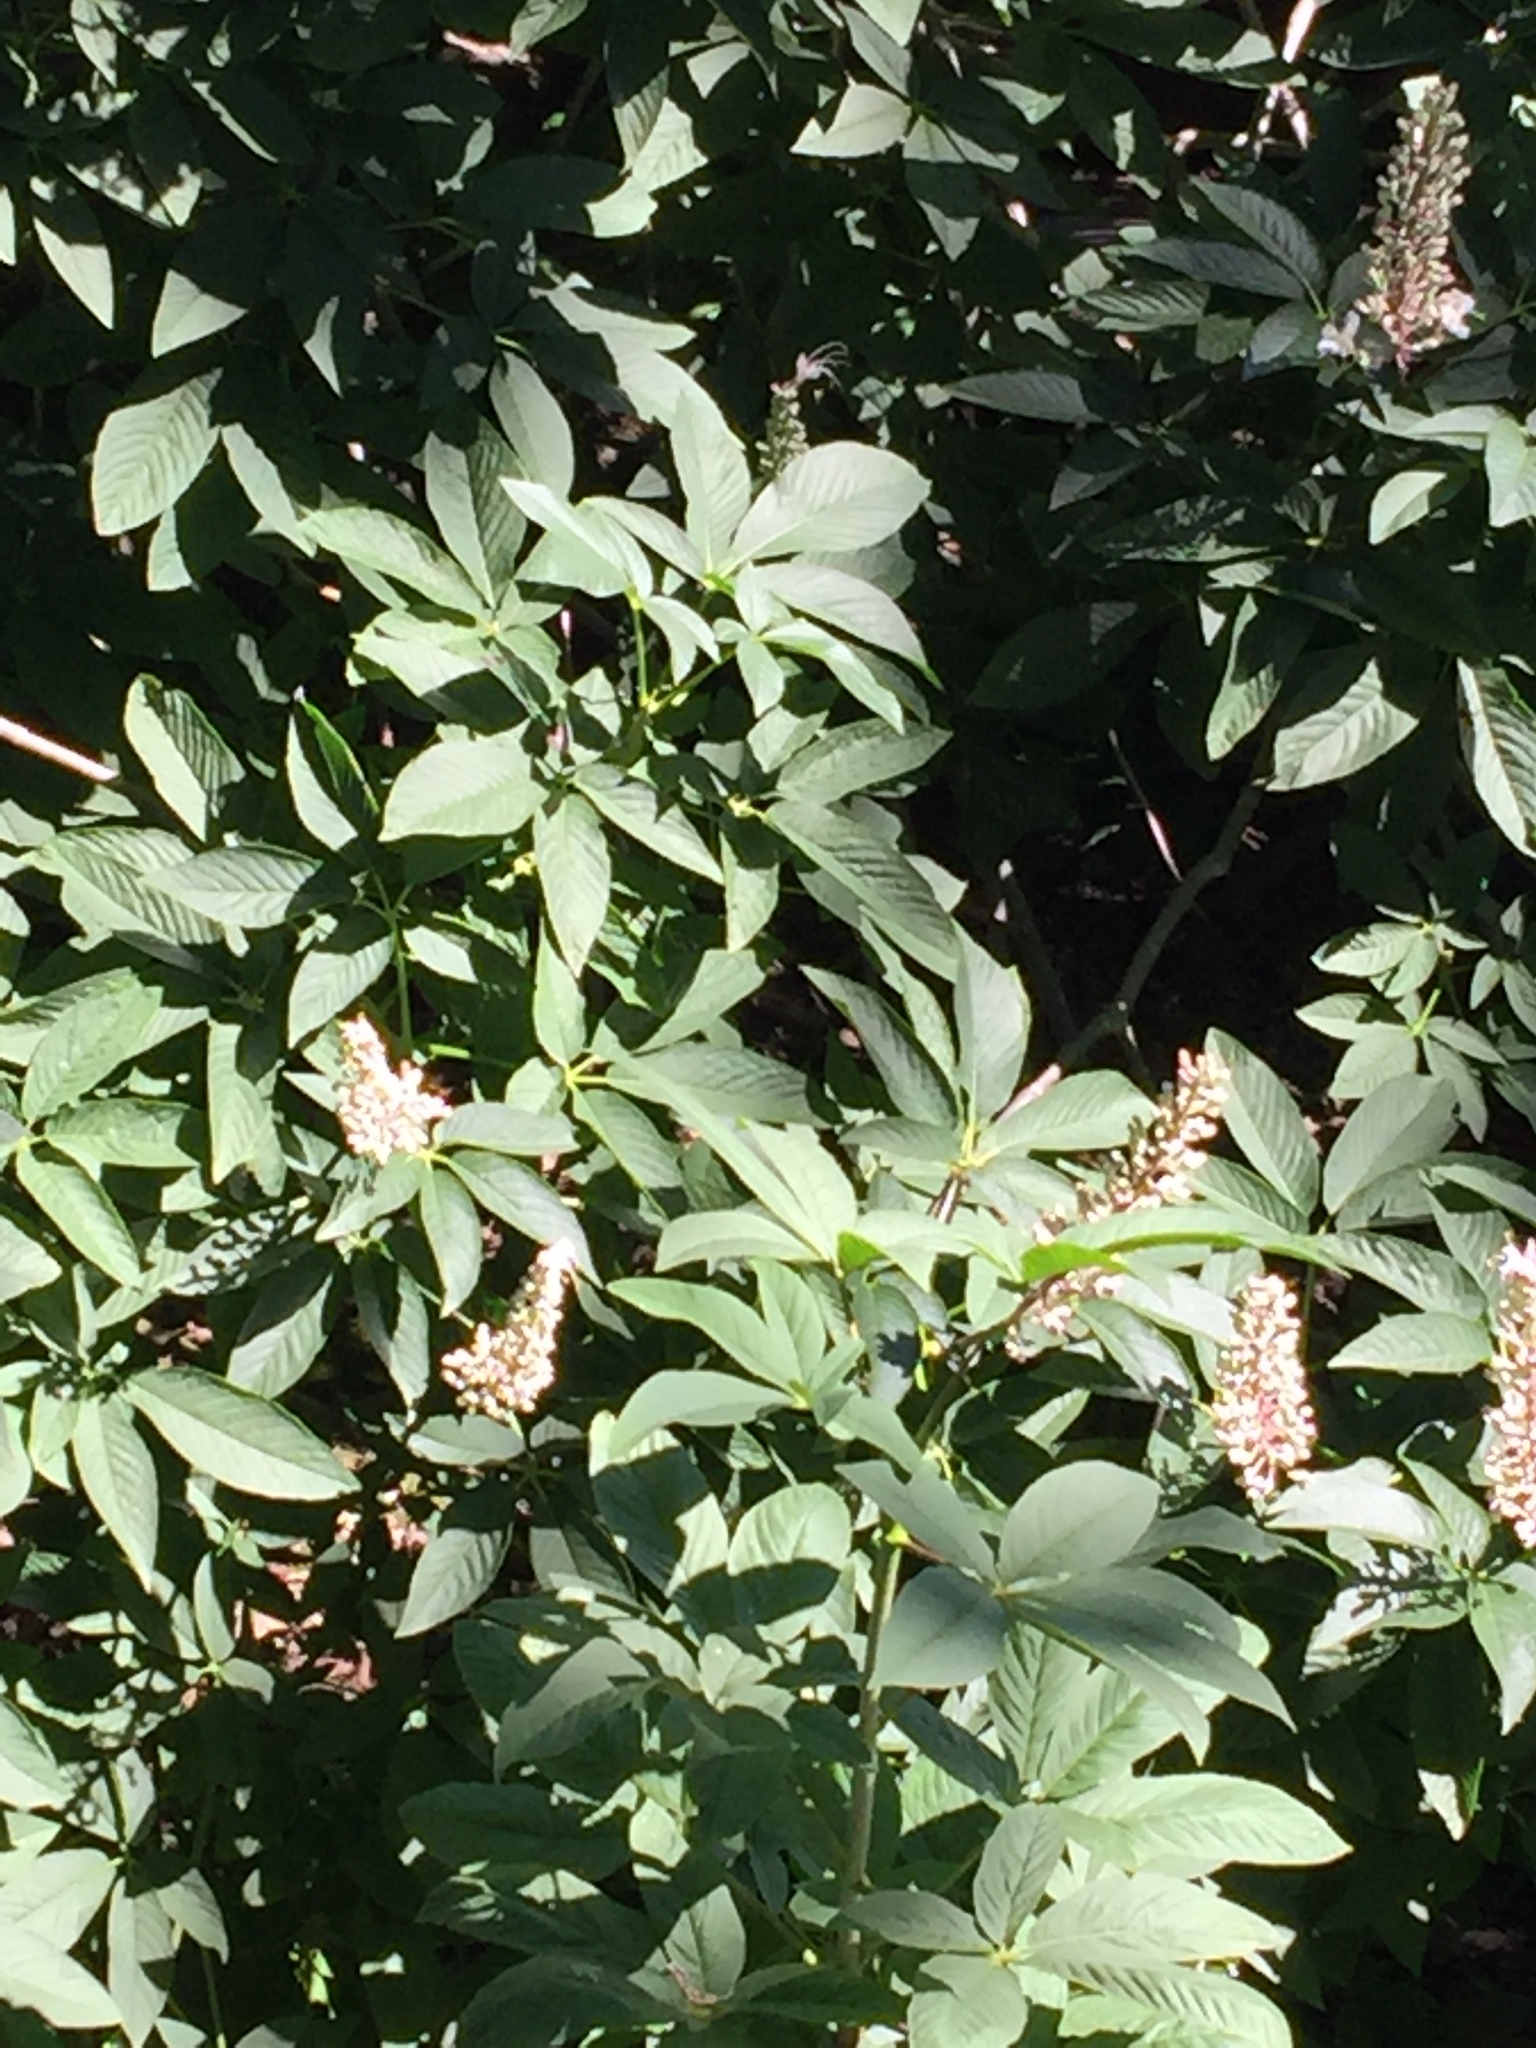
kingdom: Plantae
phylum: Tracheophyta
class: Magnoliopsida
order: Sapindales
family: Sapindaceae
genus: Aesculus
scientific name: Aesculus californica
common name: California buckeye
